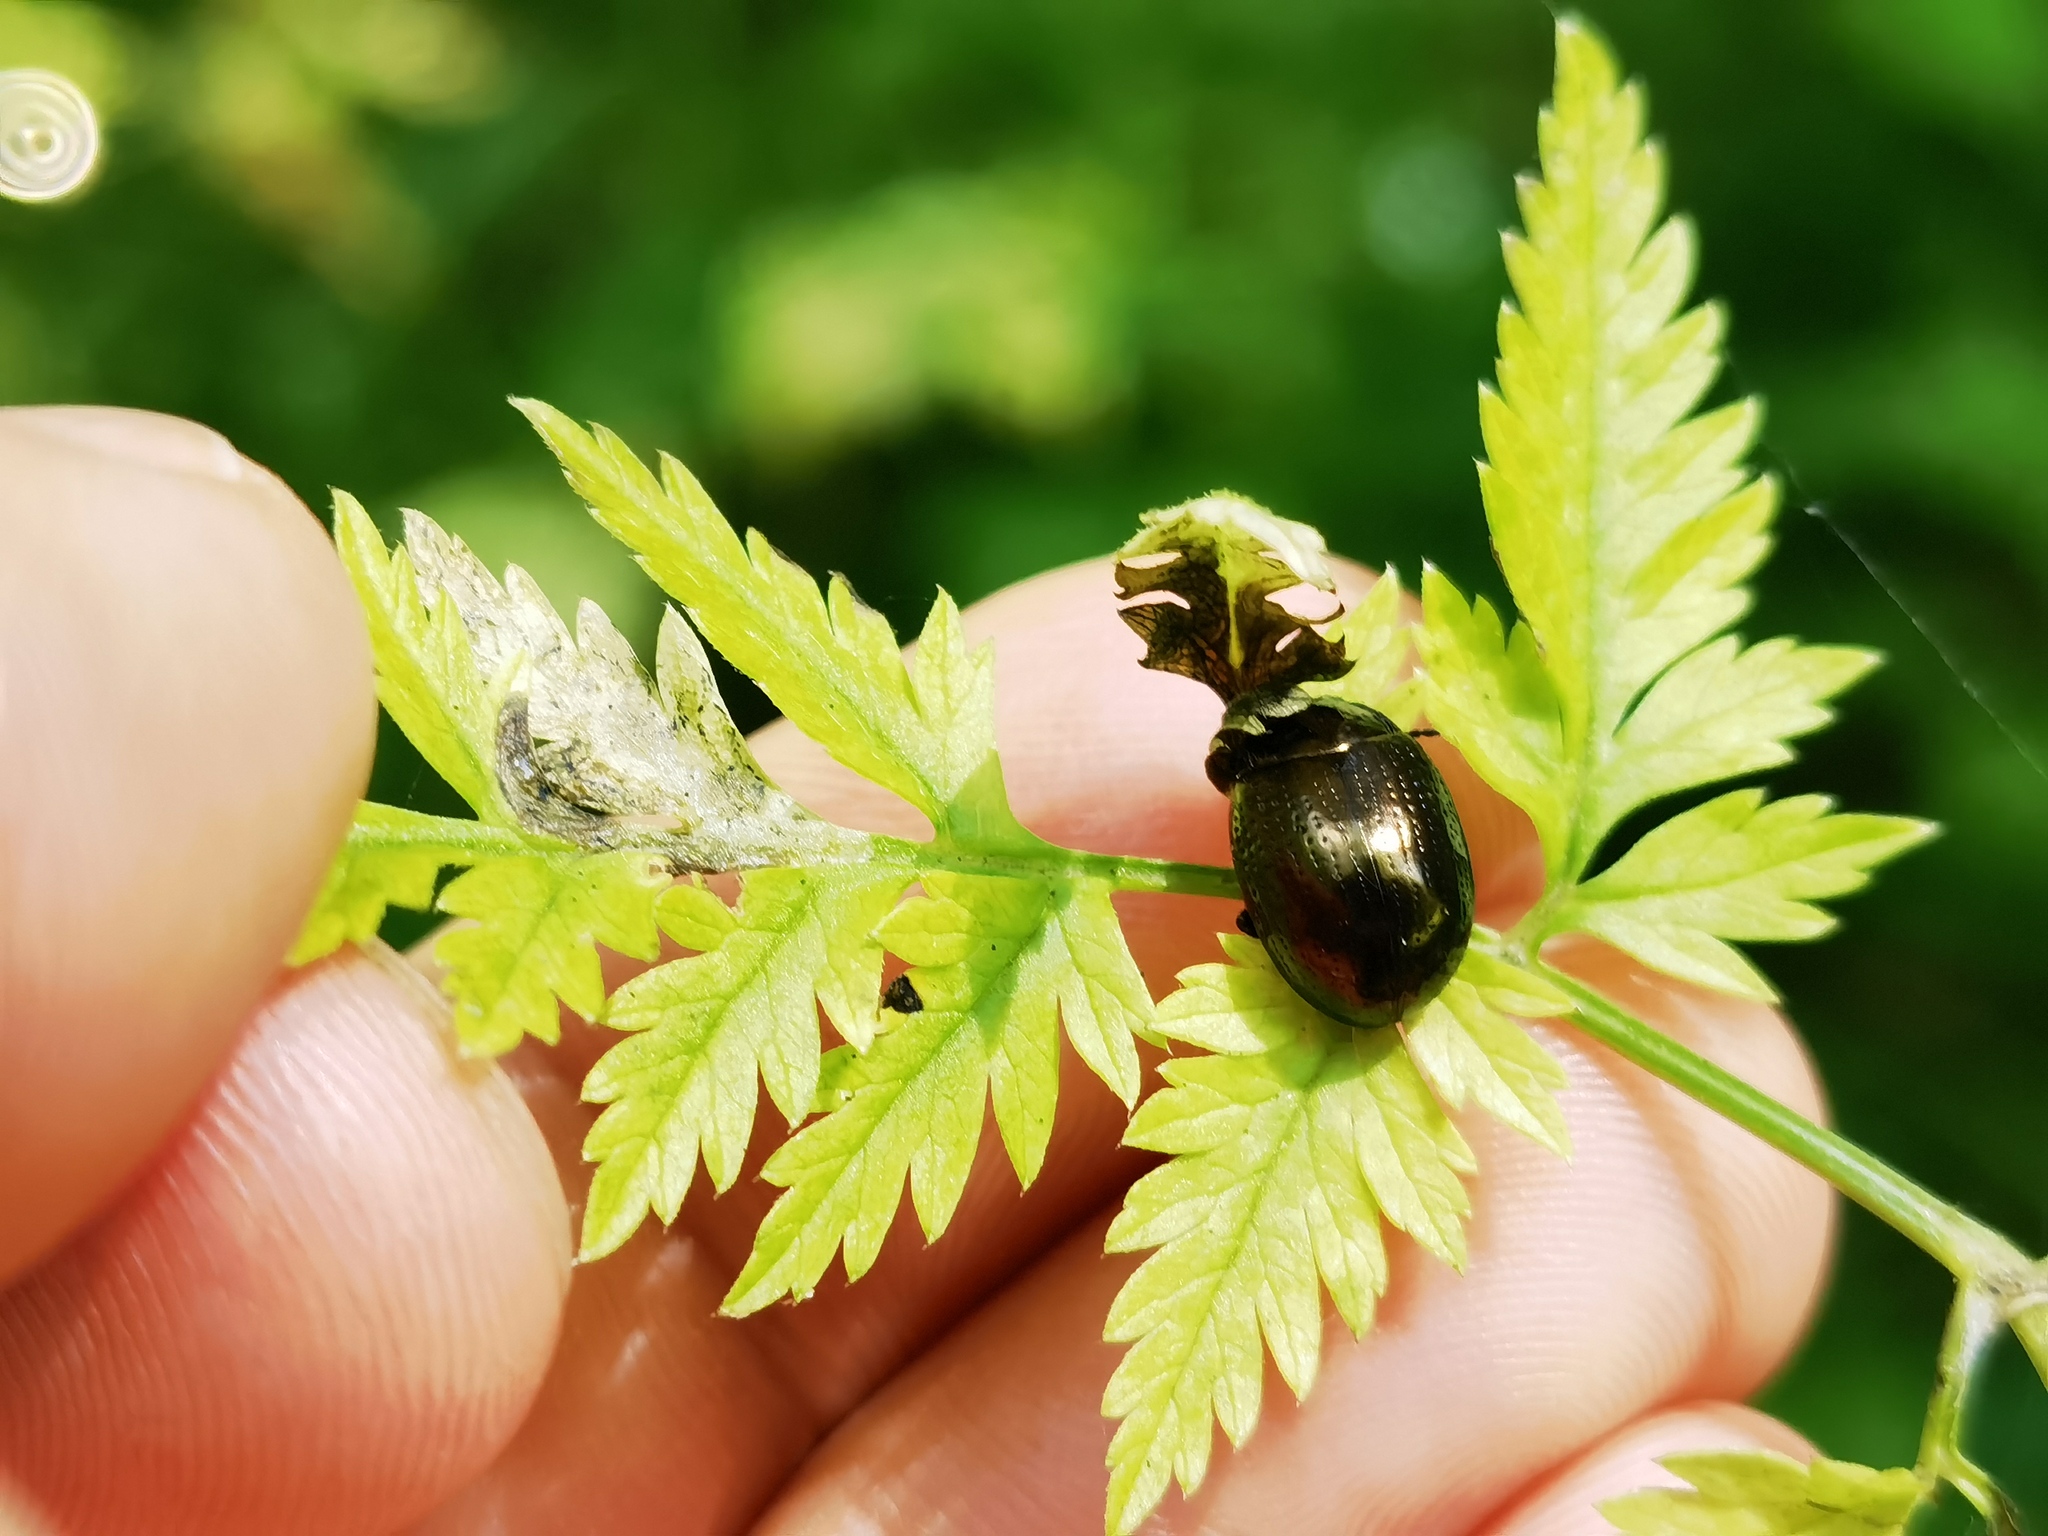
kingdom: Animalia
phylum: Arthropoda
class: Insecta
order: Coleoptera
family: Chrysomelidae
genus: Chrysolina
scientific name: Chrysolina oricalcia
